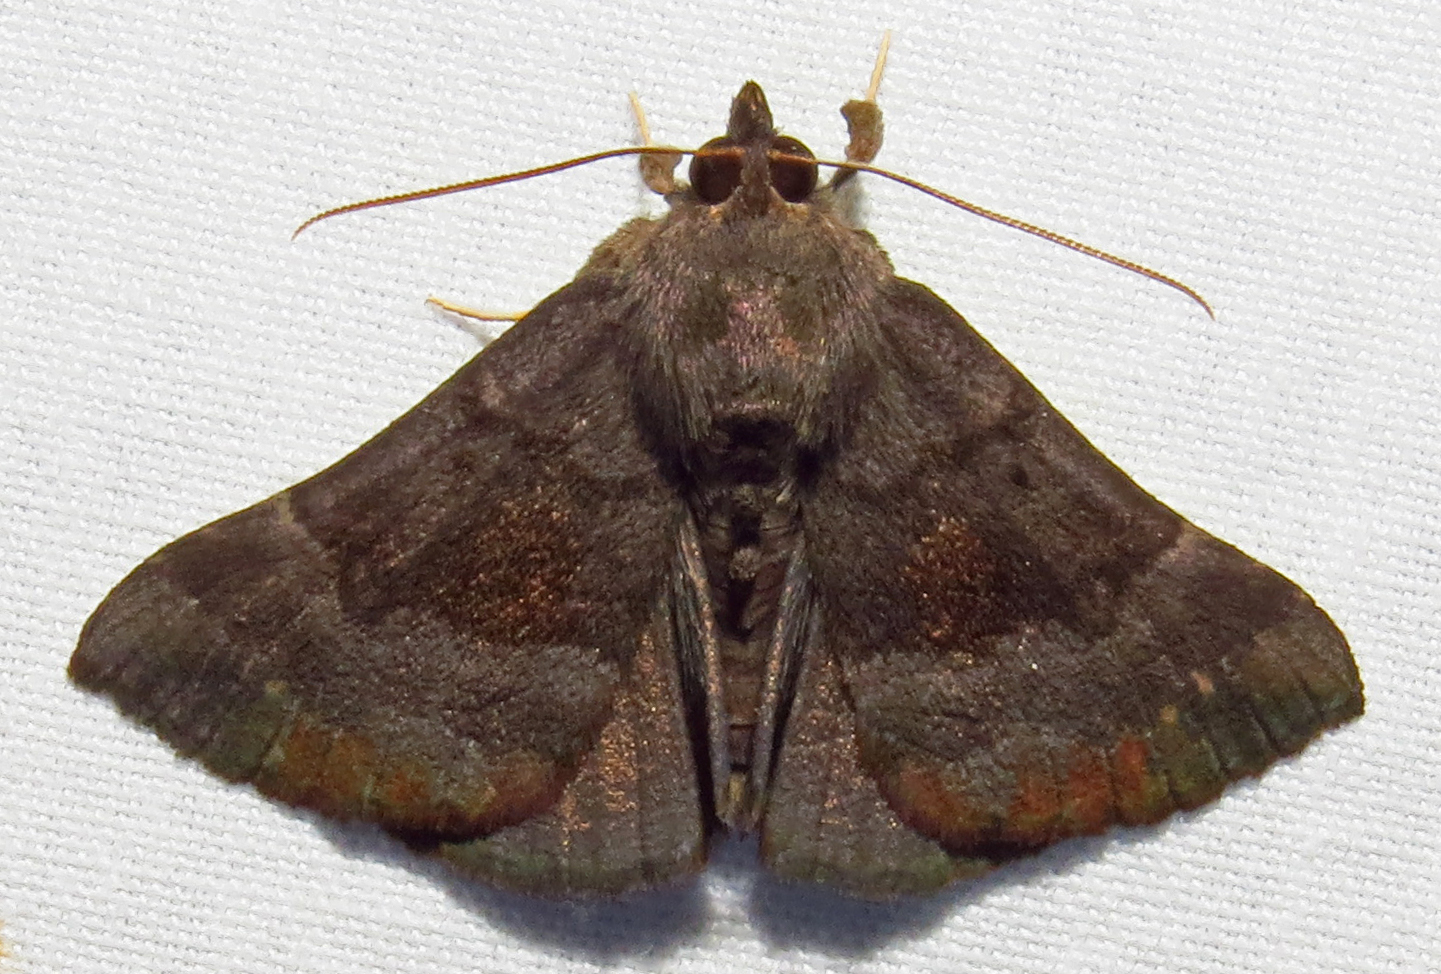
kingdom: Animalia
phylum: Arthropoda
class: Insecta
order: Lepidoptera
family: Erebidae
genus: Hypena
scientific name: Hypena madefactalis
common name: Gray-edged snout
